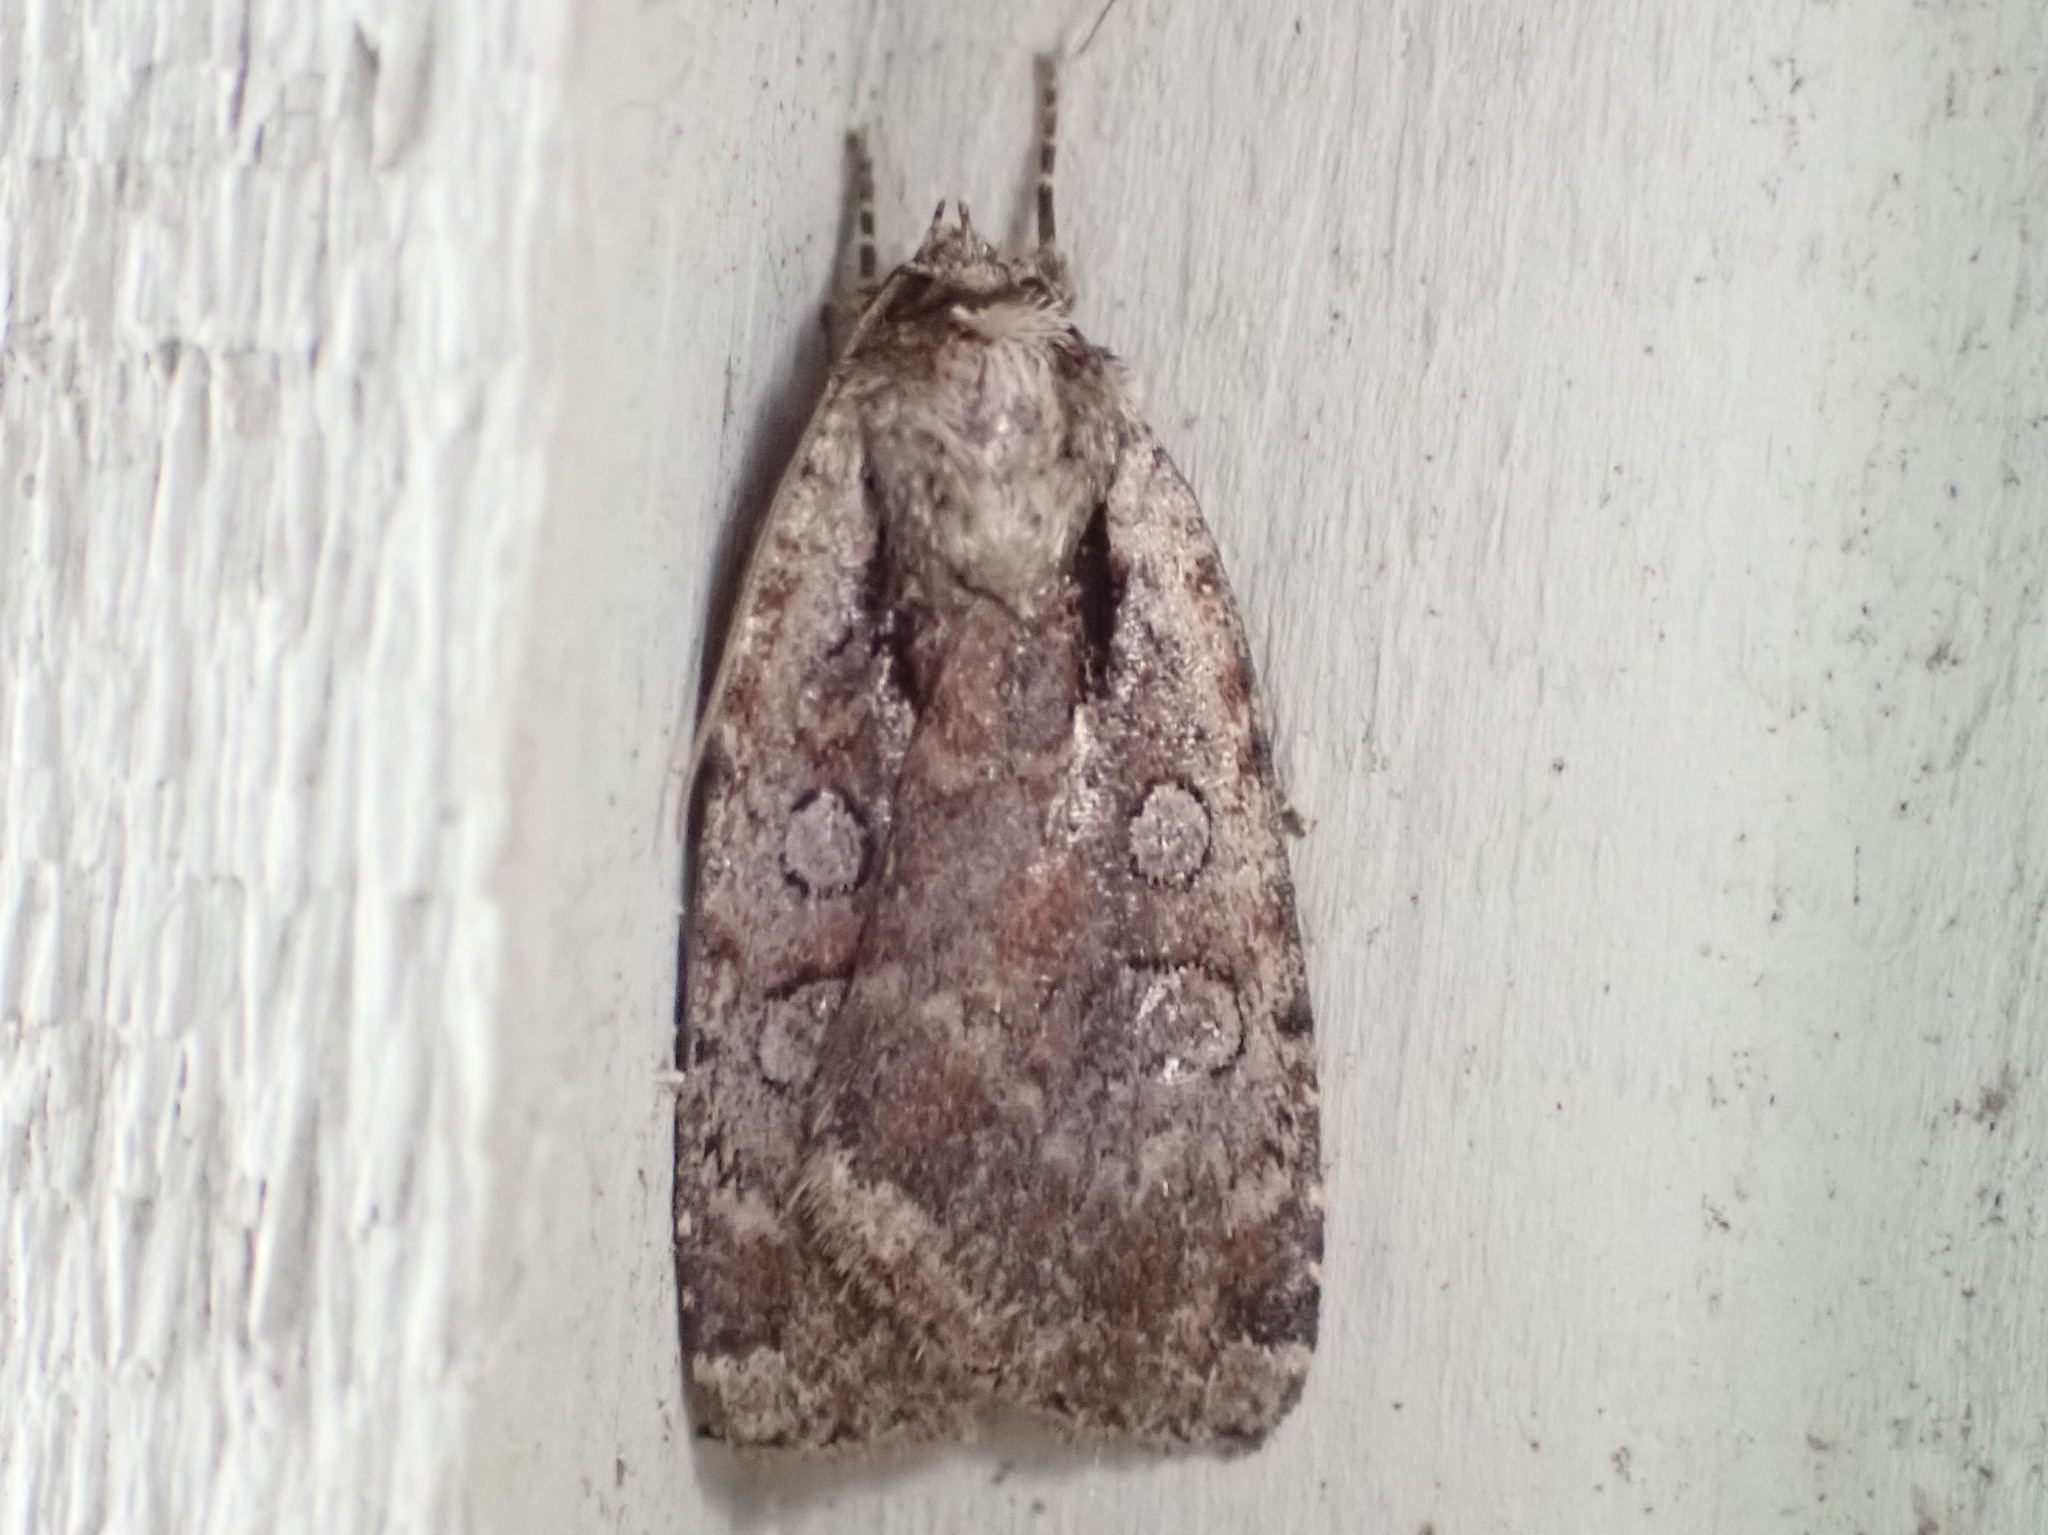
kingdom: Animalia
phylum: Arthropoda
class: Insecta
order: Lepidoptera
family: Noctuidae
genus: Eueretagrotis
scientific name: Eueretagrotis attentus
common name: Attentive dart
